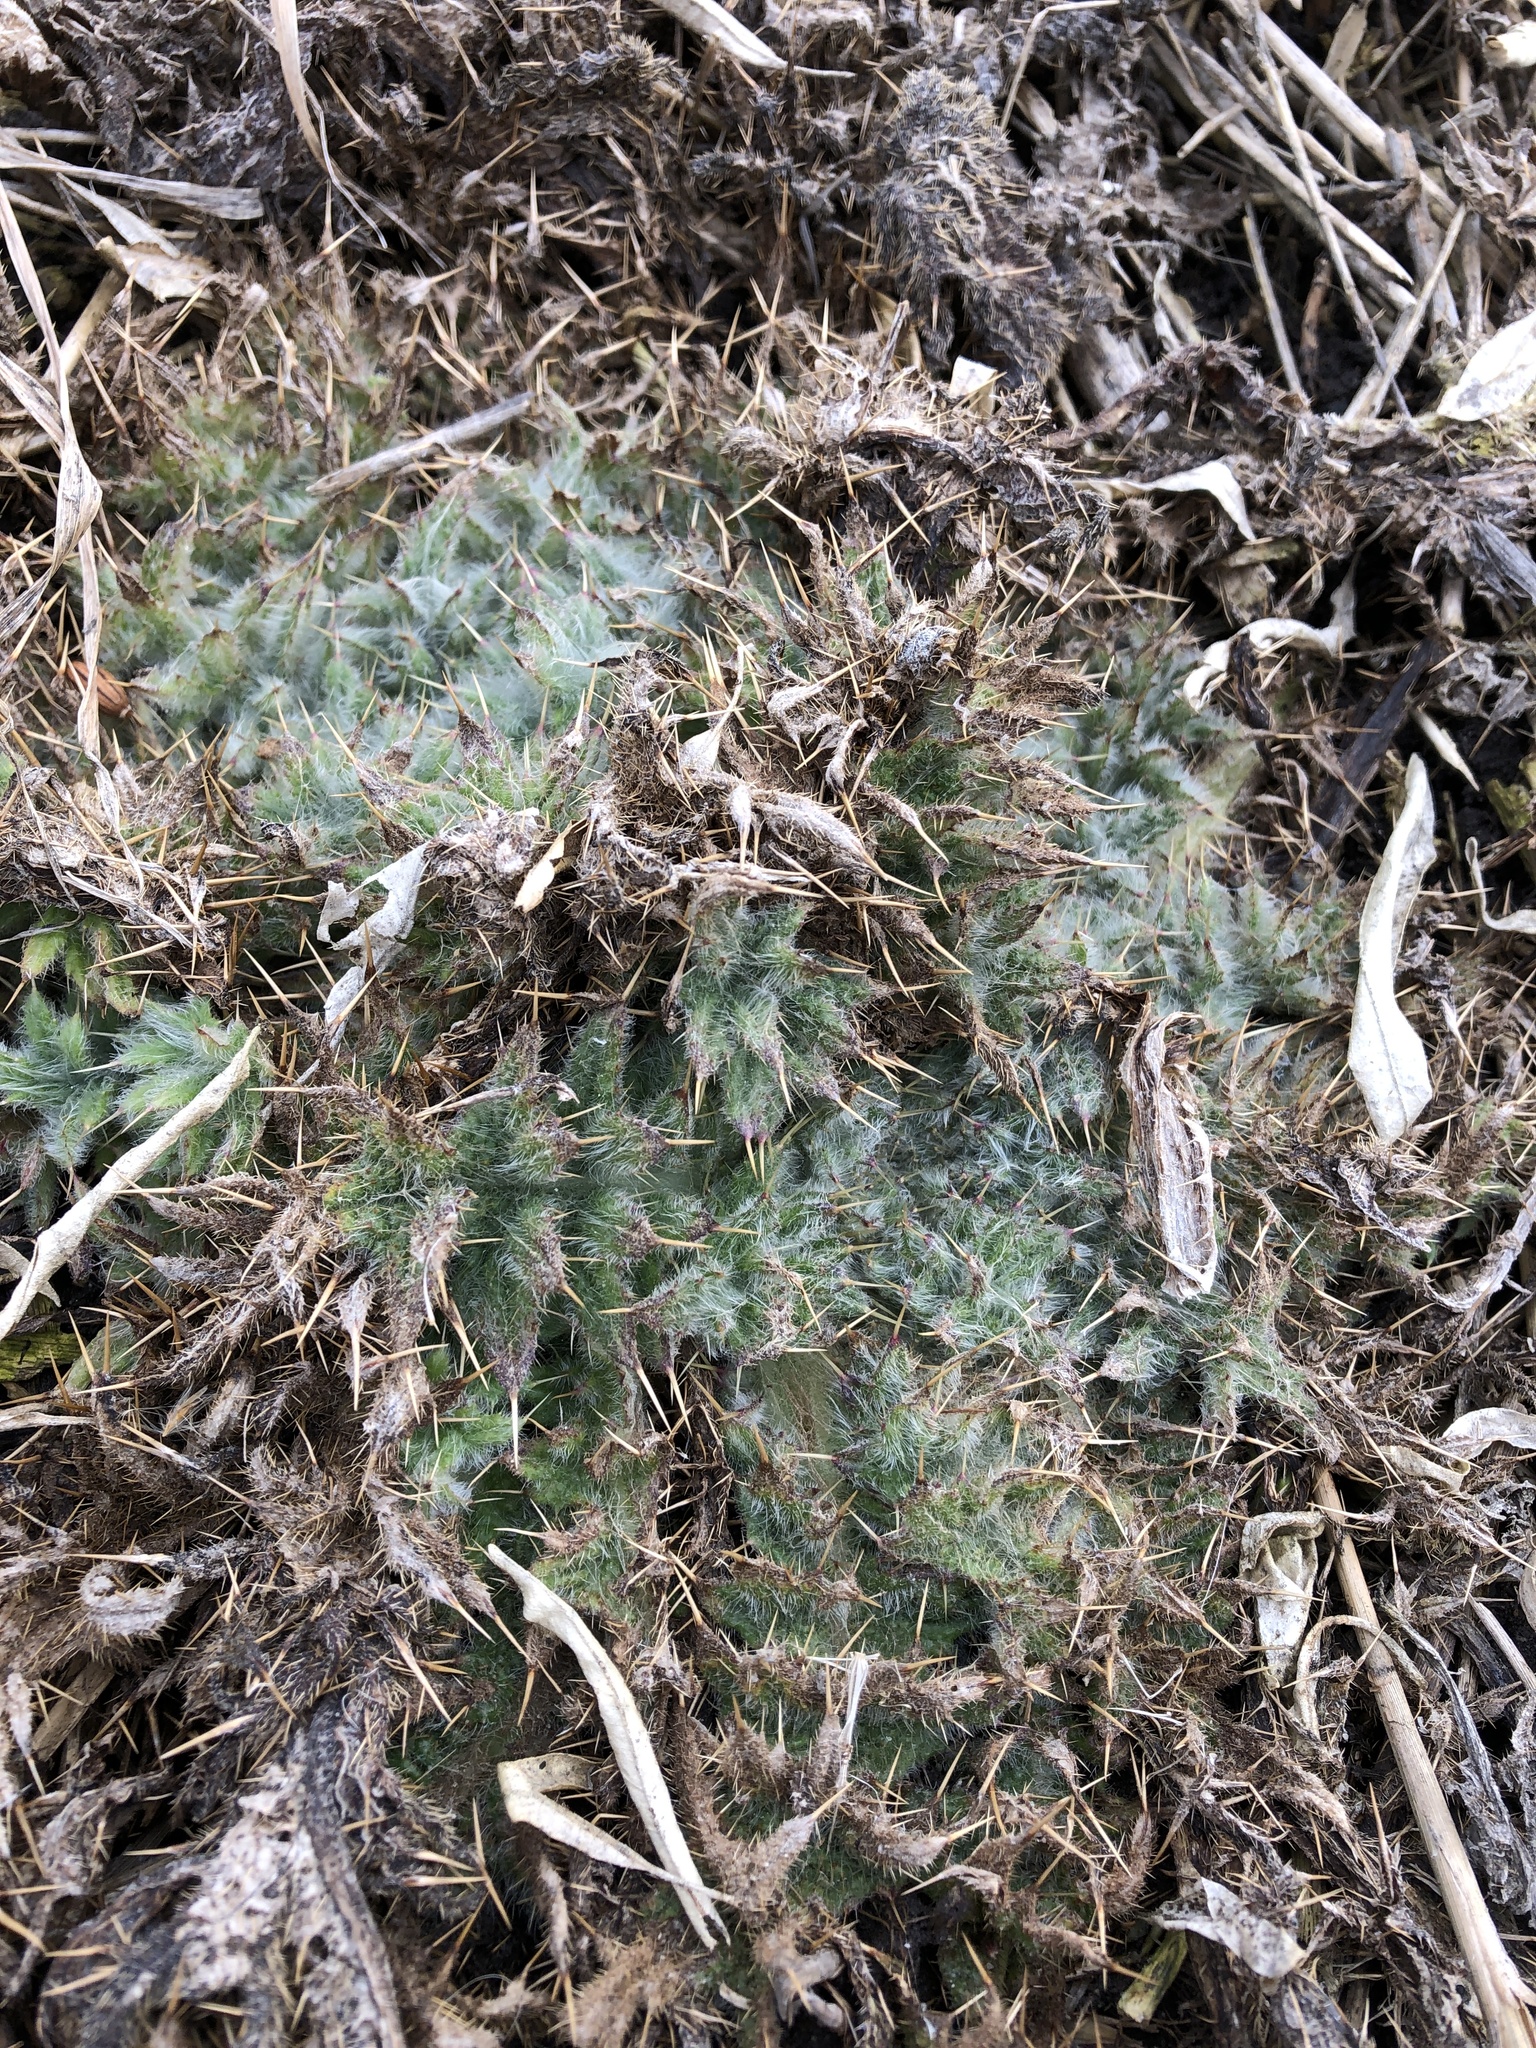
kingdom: Plantae
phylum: Tracheophyta
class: Magnoliopsida
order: Asterales
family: Asteraceae
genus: Cirsium
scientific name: Cirsium vulgare
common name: Bull thistle
